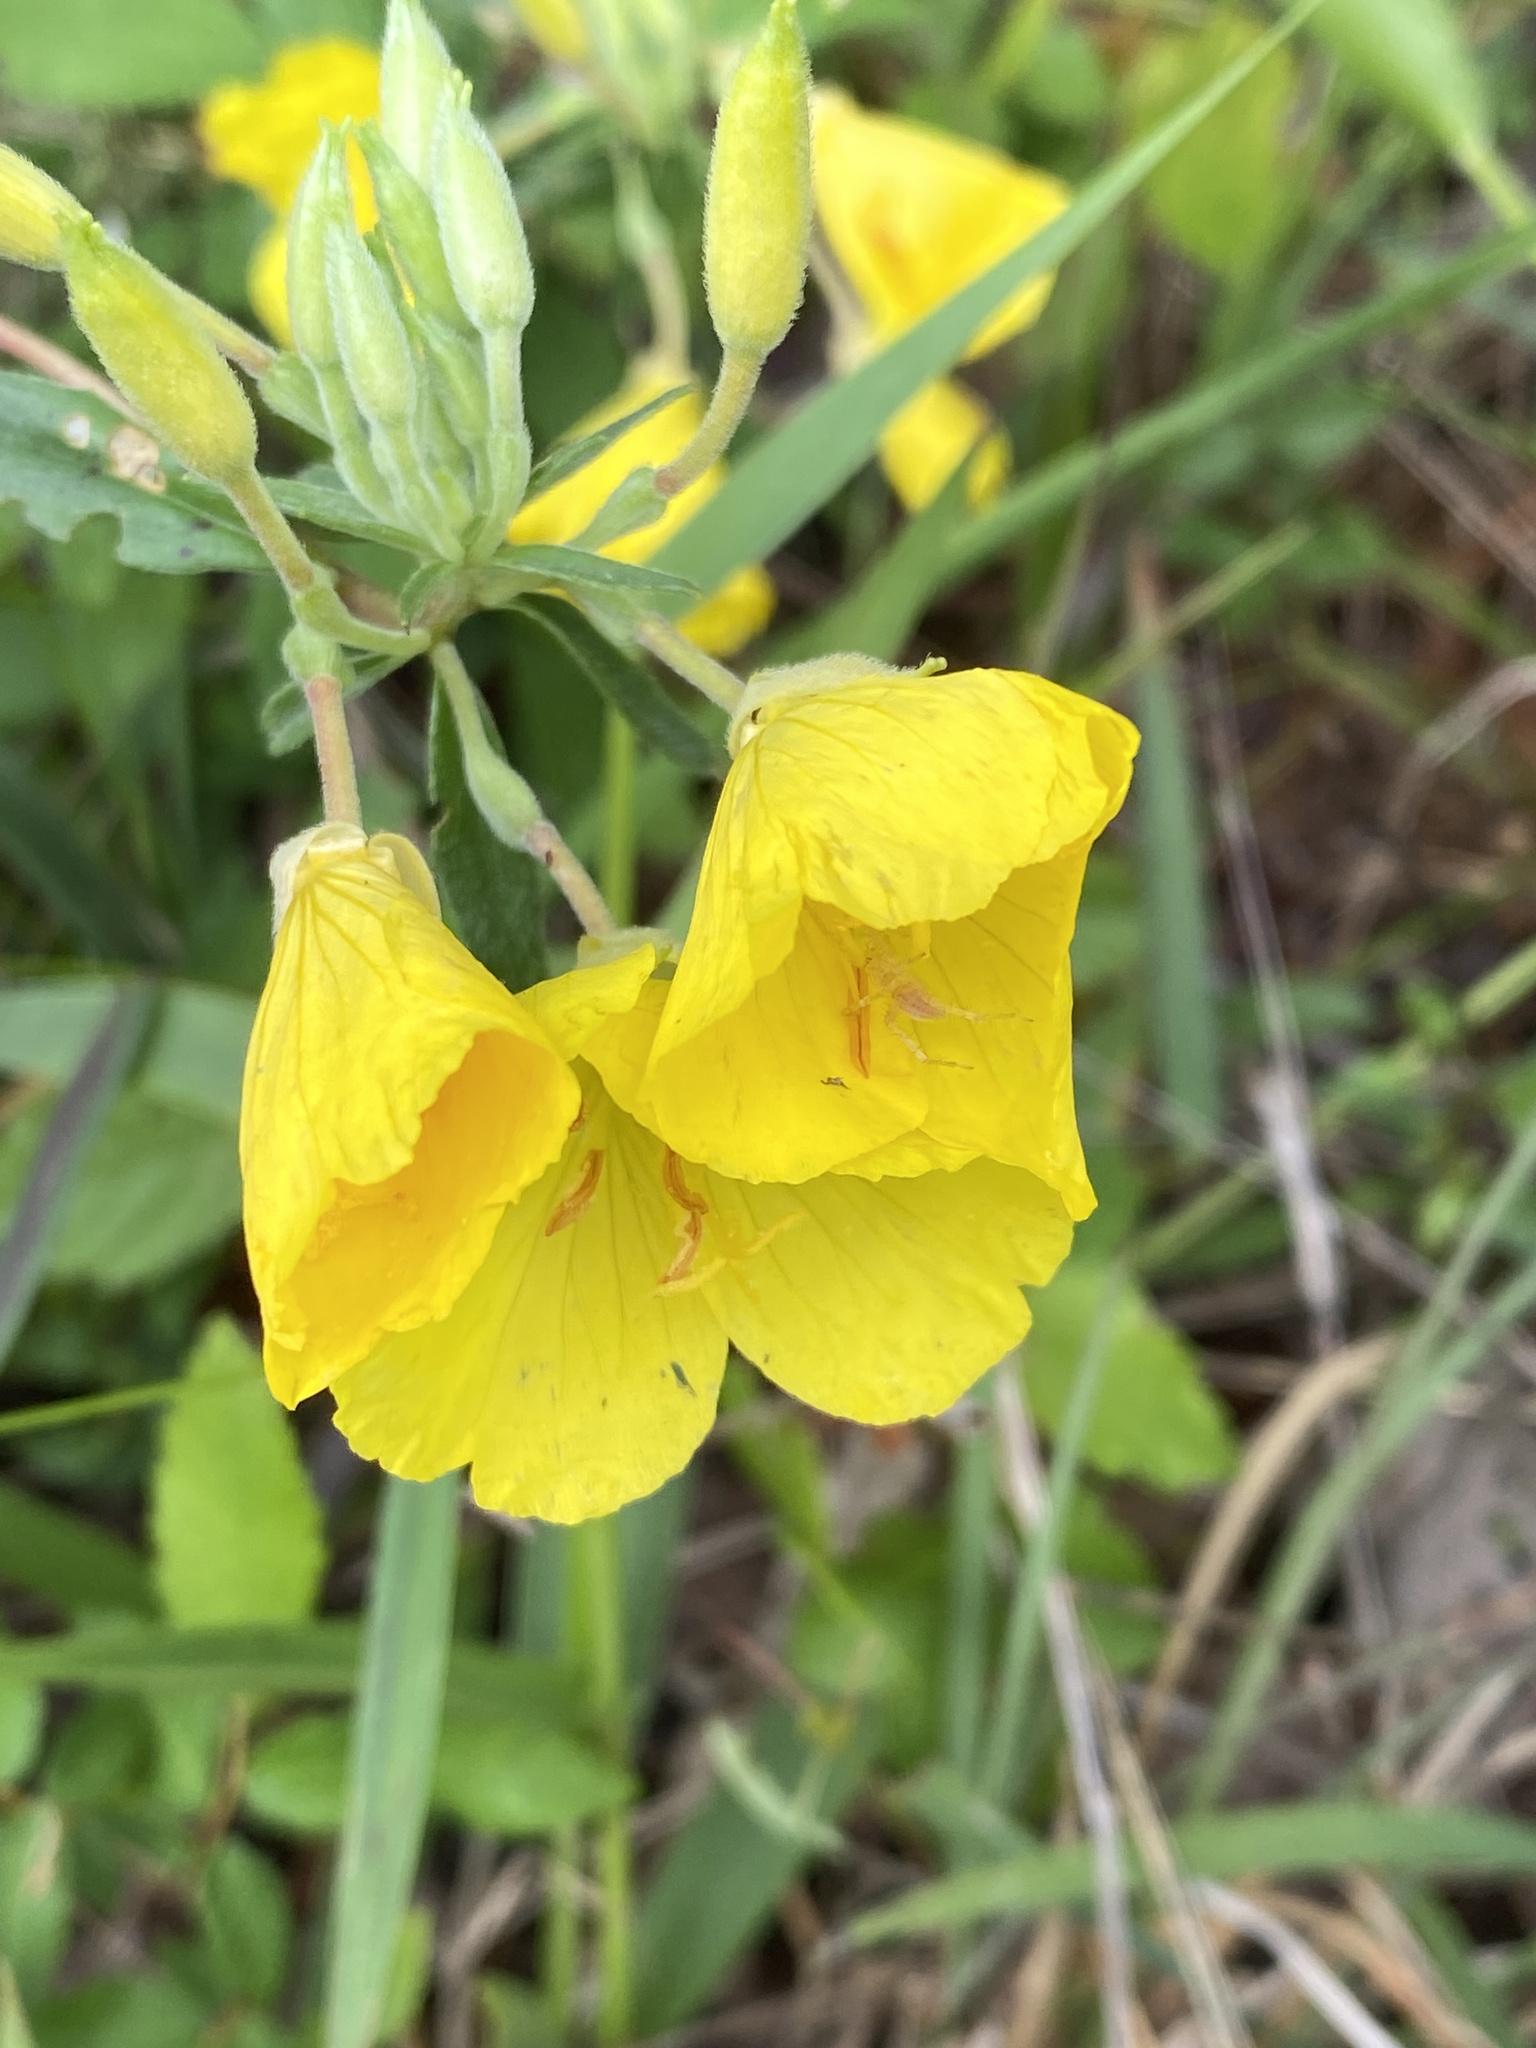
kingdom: Plantae
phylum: Tracheophyta
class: Magnoliopsida
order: Myrtales
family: Onagraceae
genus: Oenothera
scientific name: Oenothera fruticosa
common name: Southern sundrops
